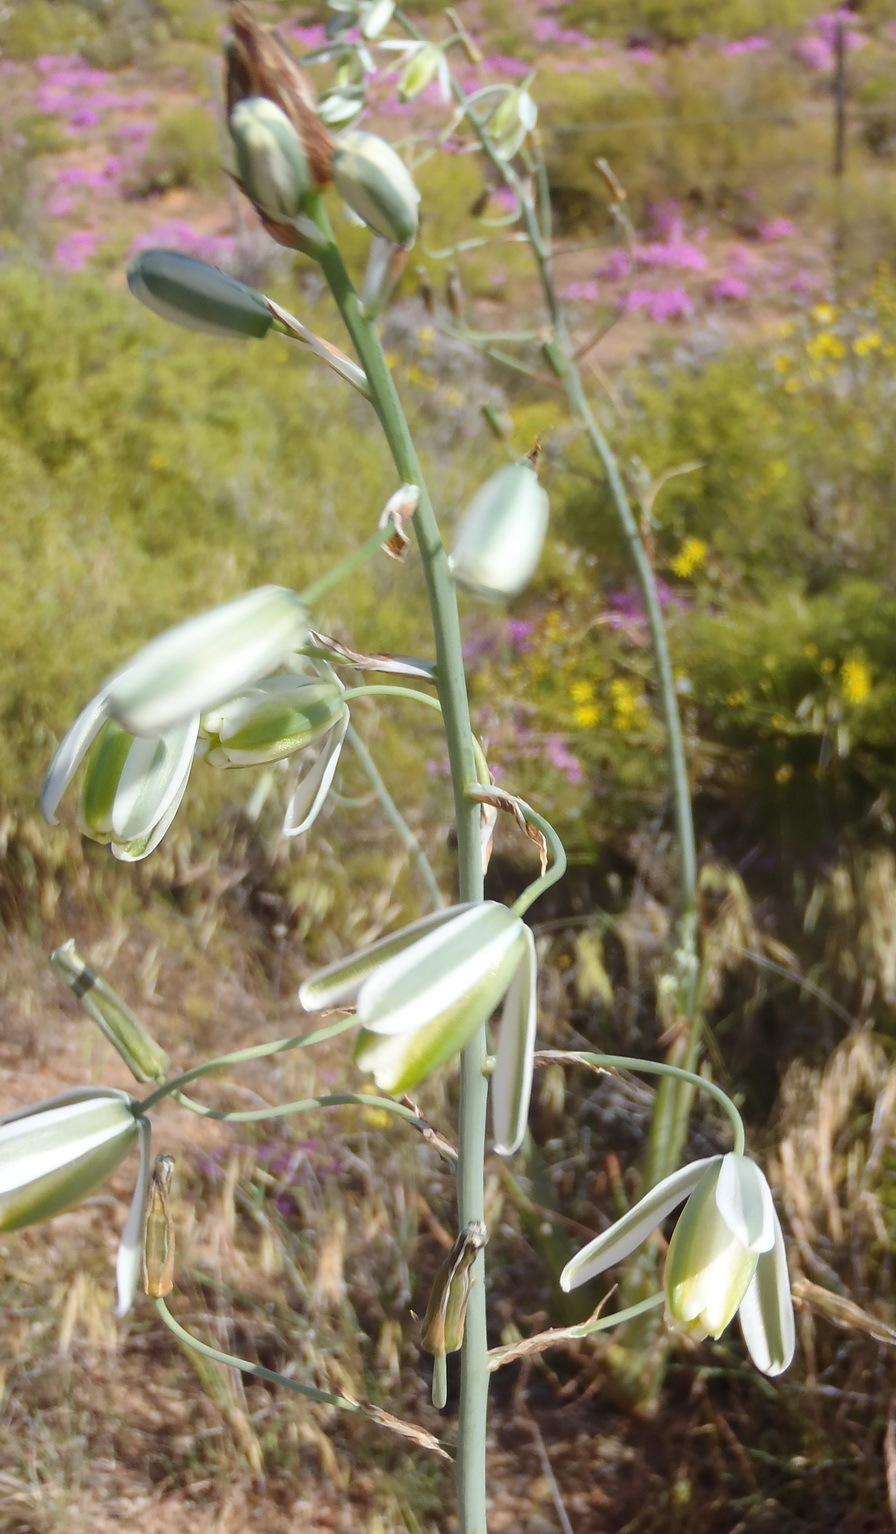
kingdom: Plantae
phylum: Tracheophyta
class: Liliopsida
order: Asparagales
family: Asparagaceae
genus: Albuca
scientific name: Albuca canadensis
